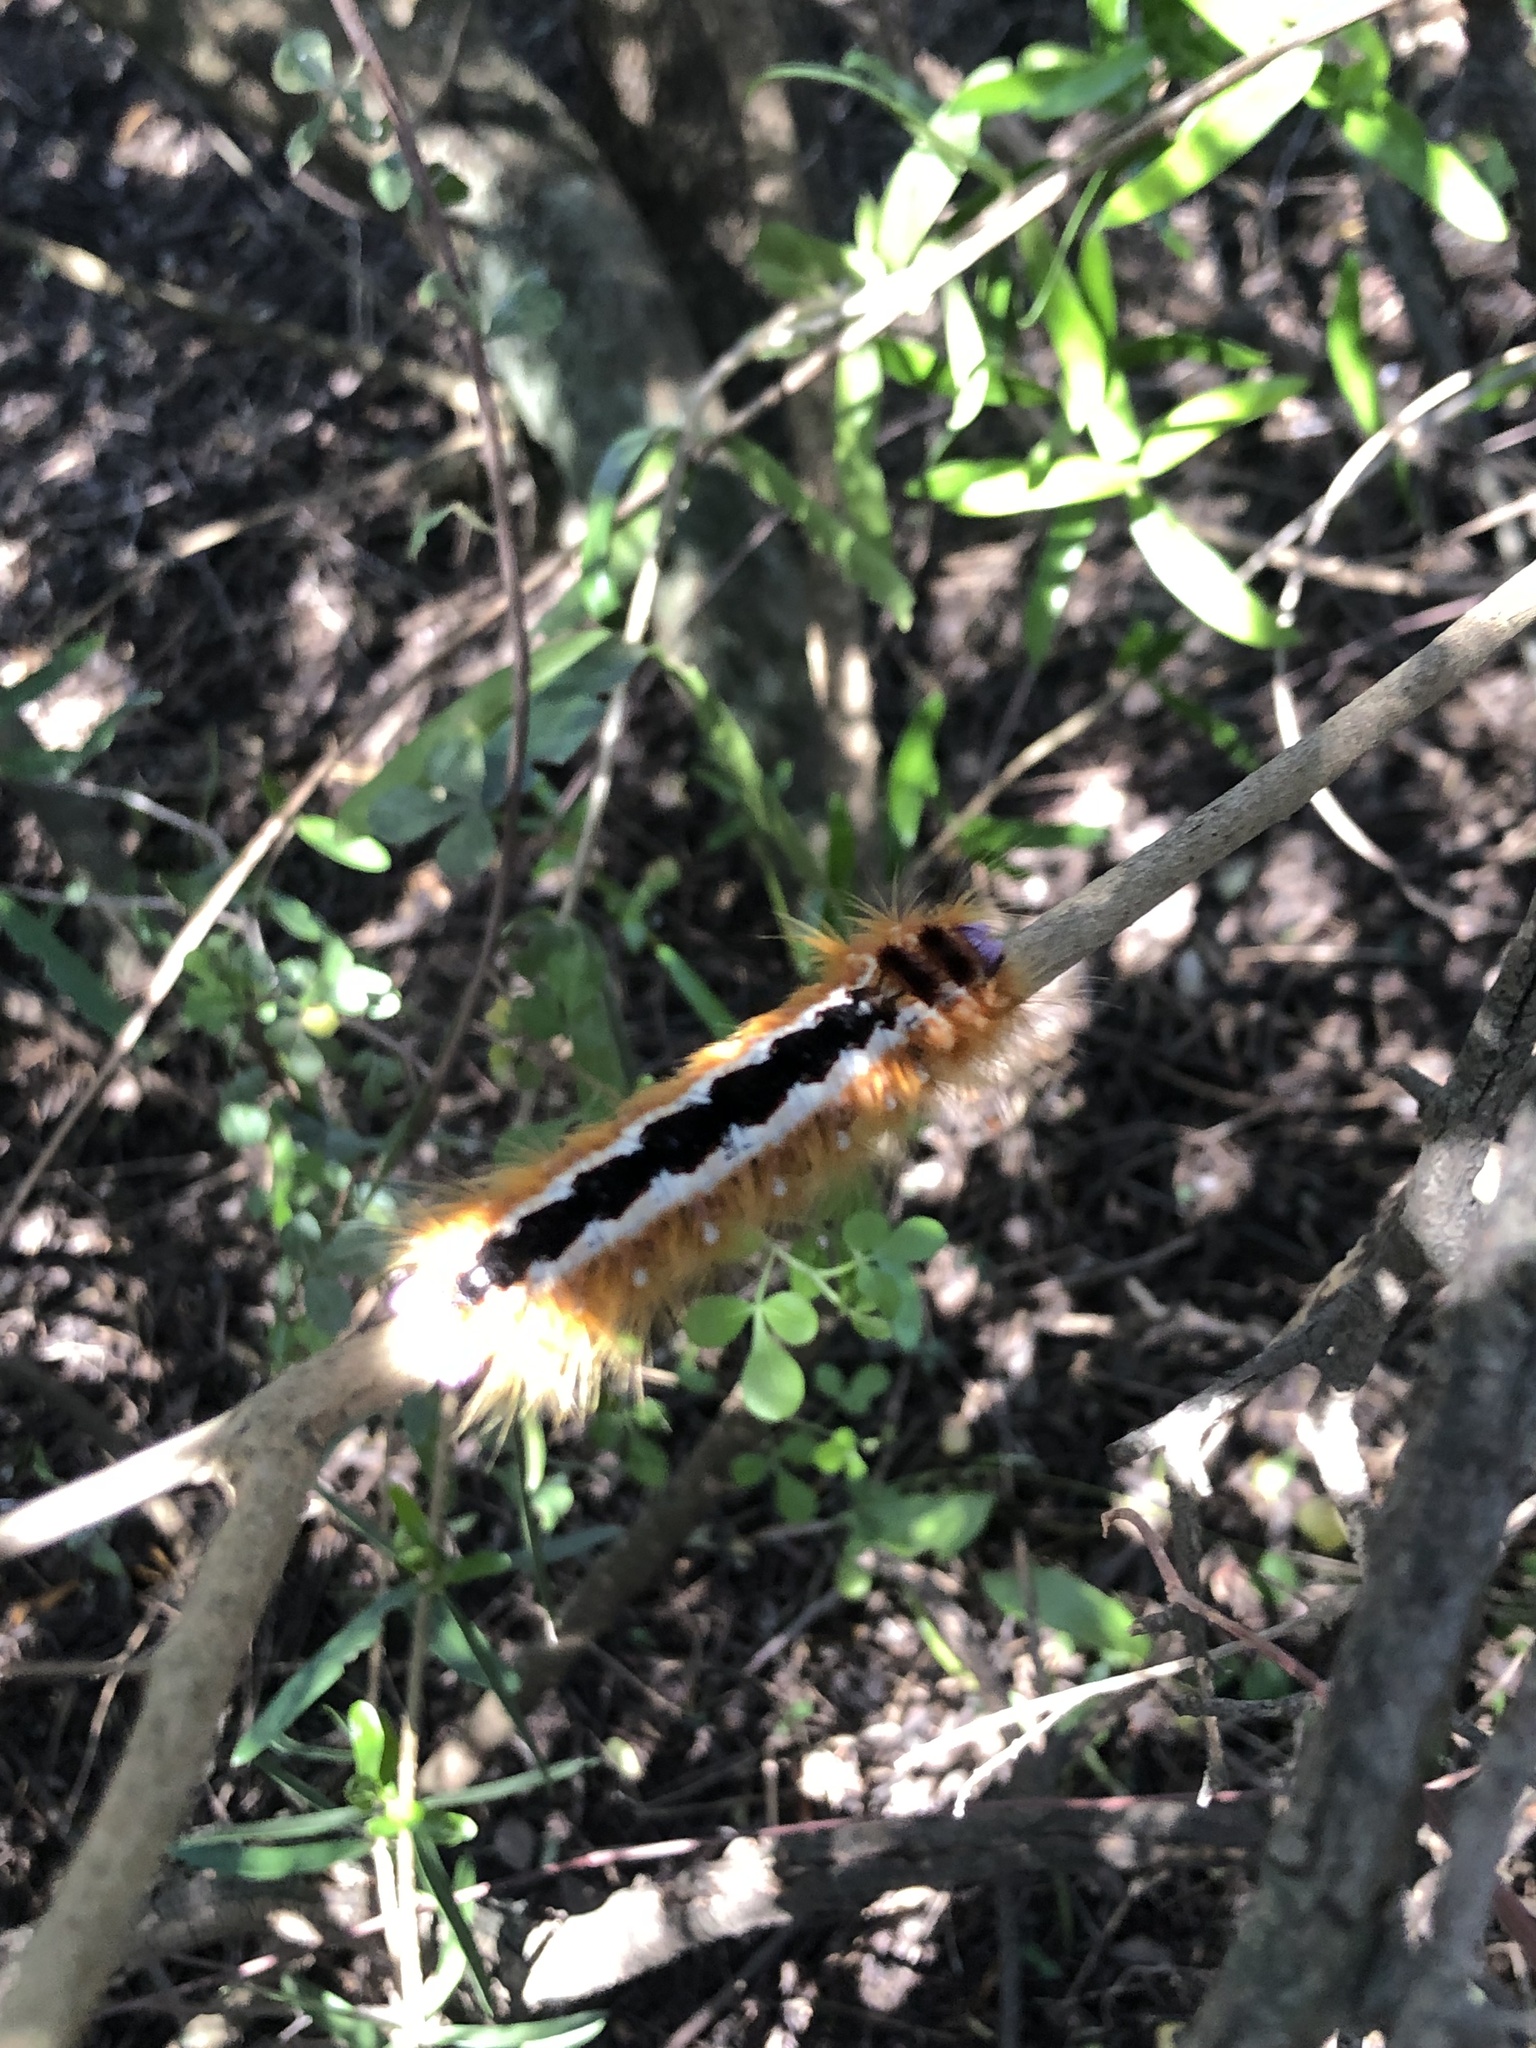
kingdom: Animalia
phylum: Arthropoda
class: Insecta
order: Lepidoptera
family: Lasiocampidae
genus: Eutricha
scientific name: Eutricha capensis
